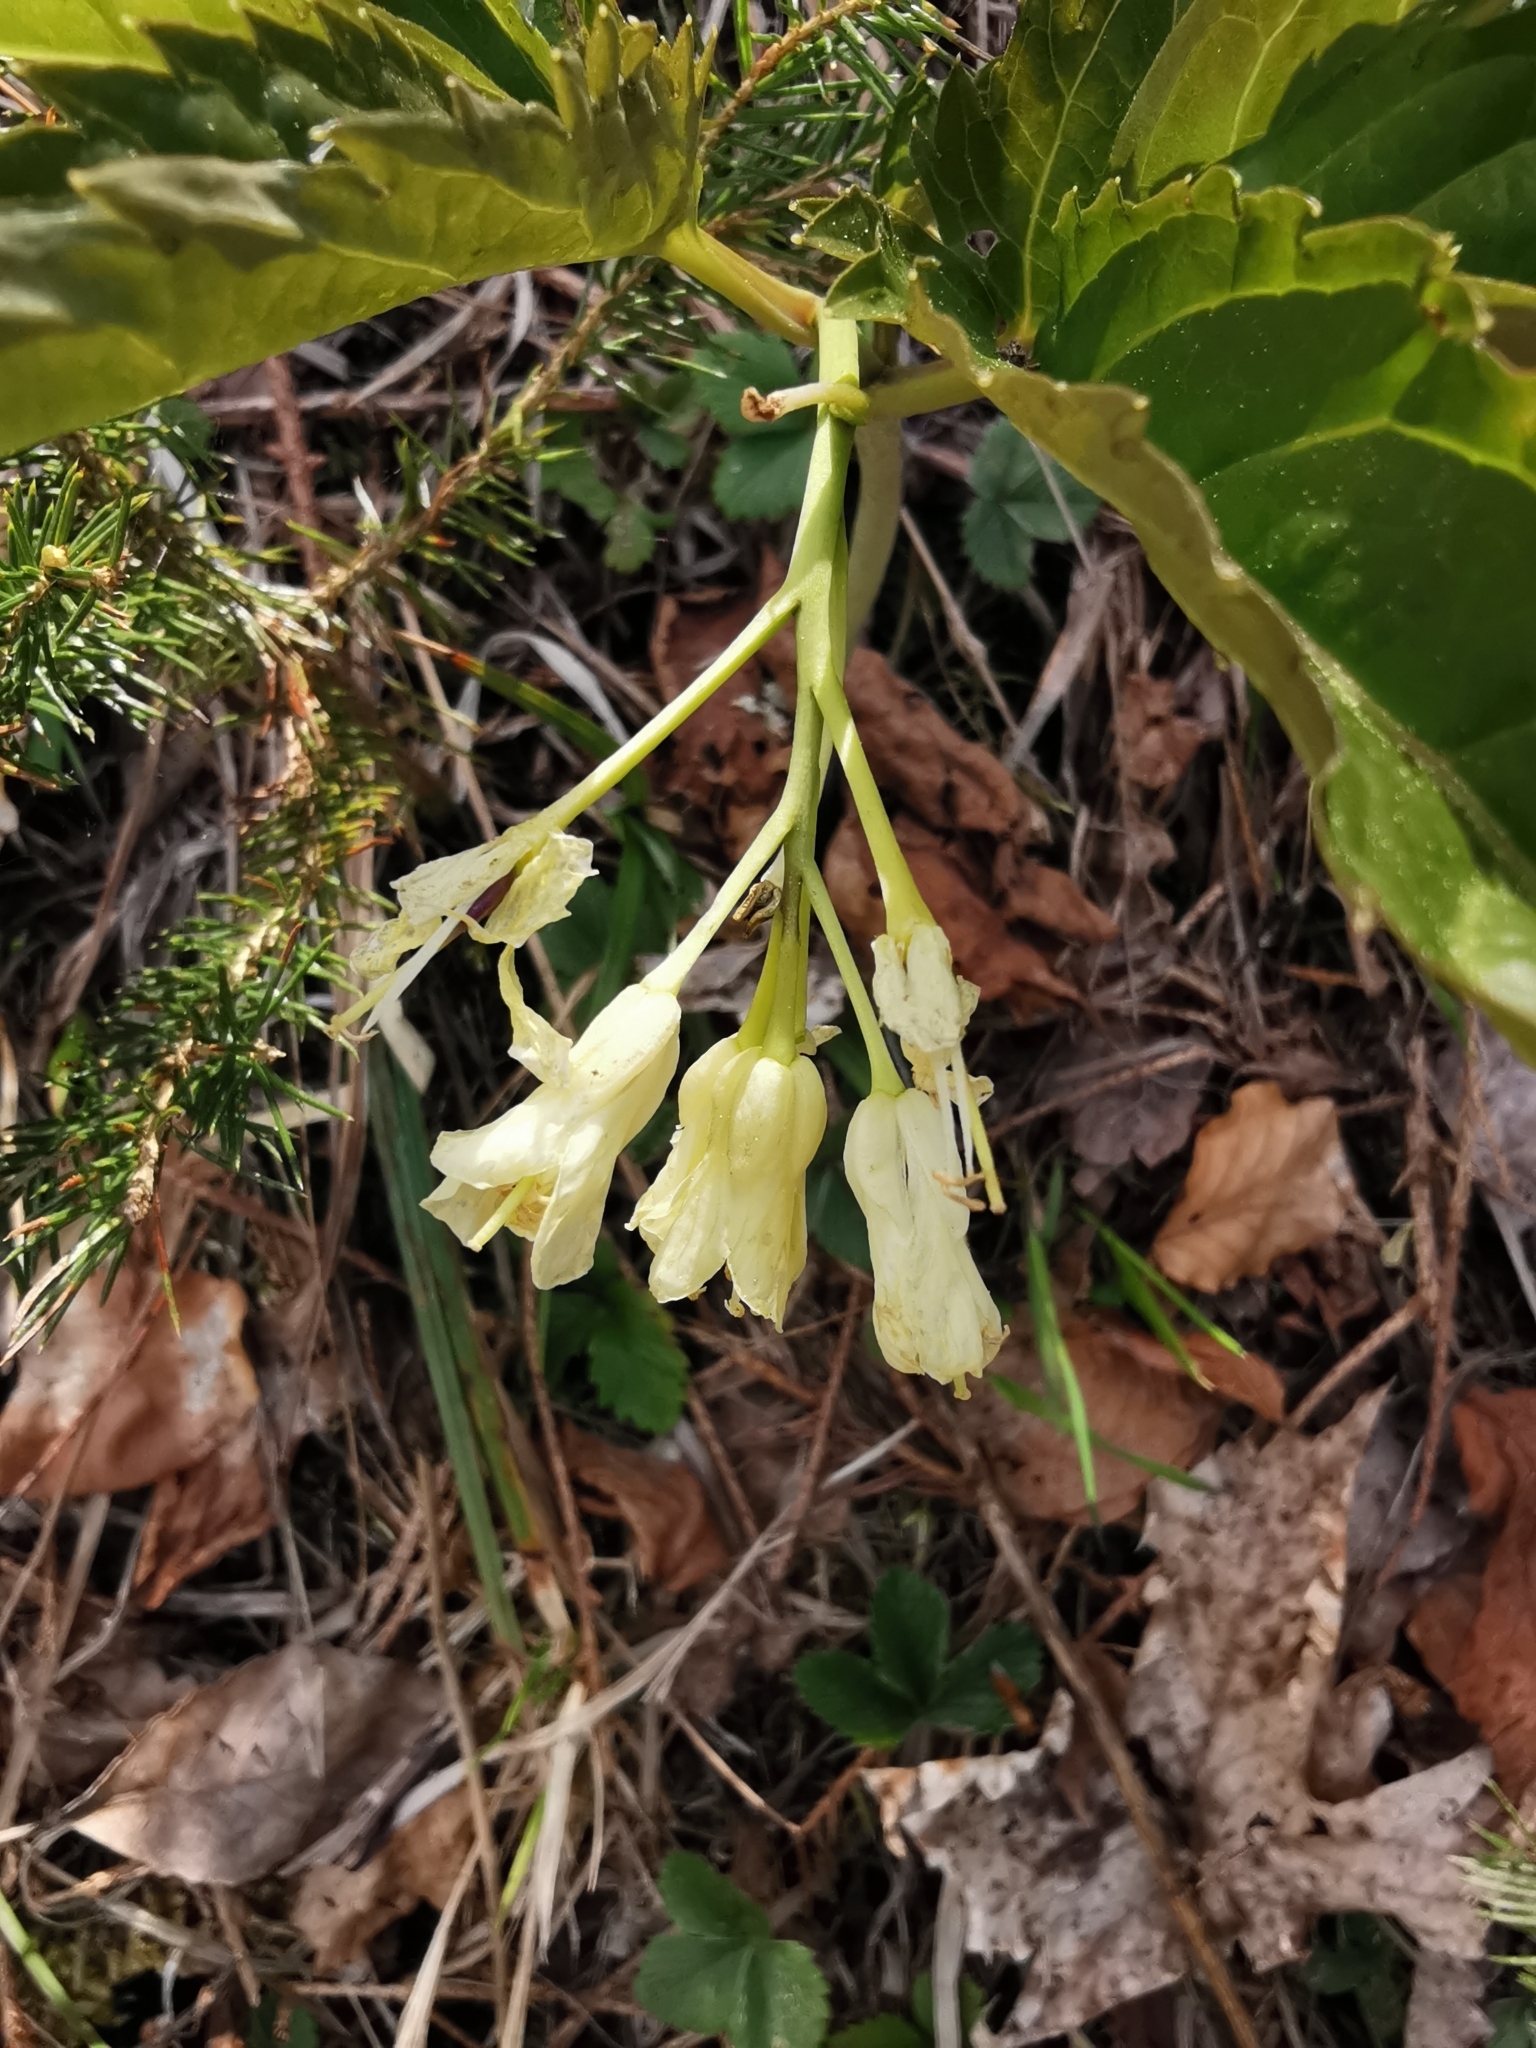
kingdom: Plantae
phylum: Tracheophyta
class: Magnoliopsida
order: Brassicales
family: Brassicaceae
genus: Cardamine
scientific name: Cardamine enneaphyllos
